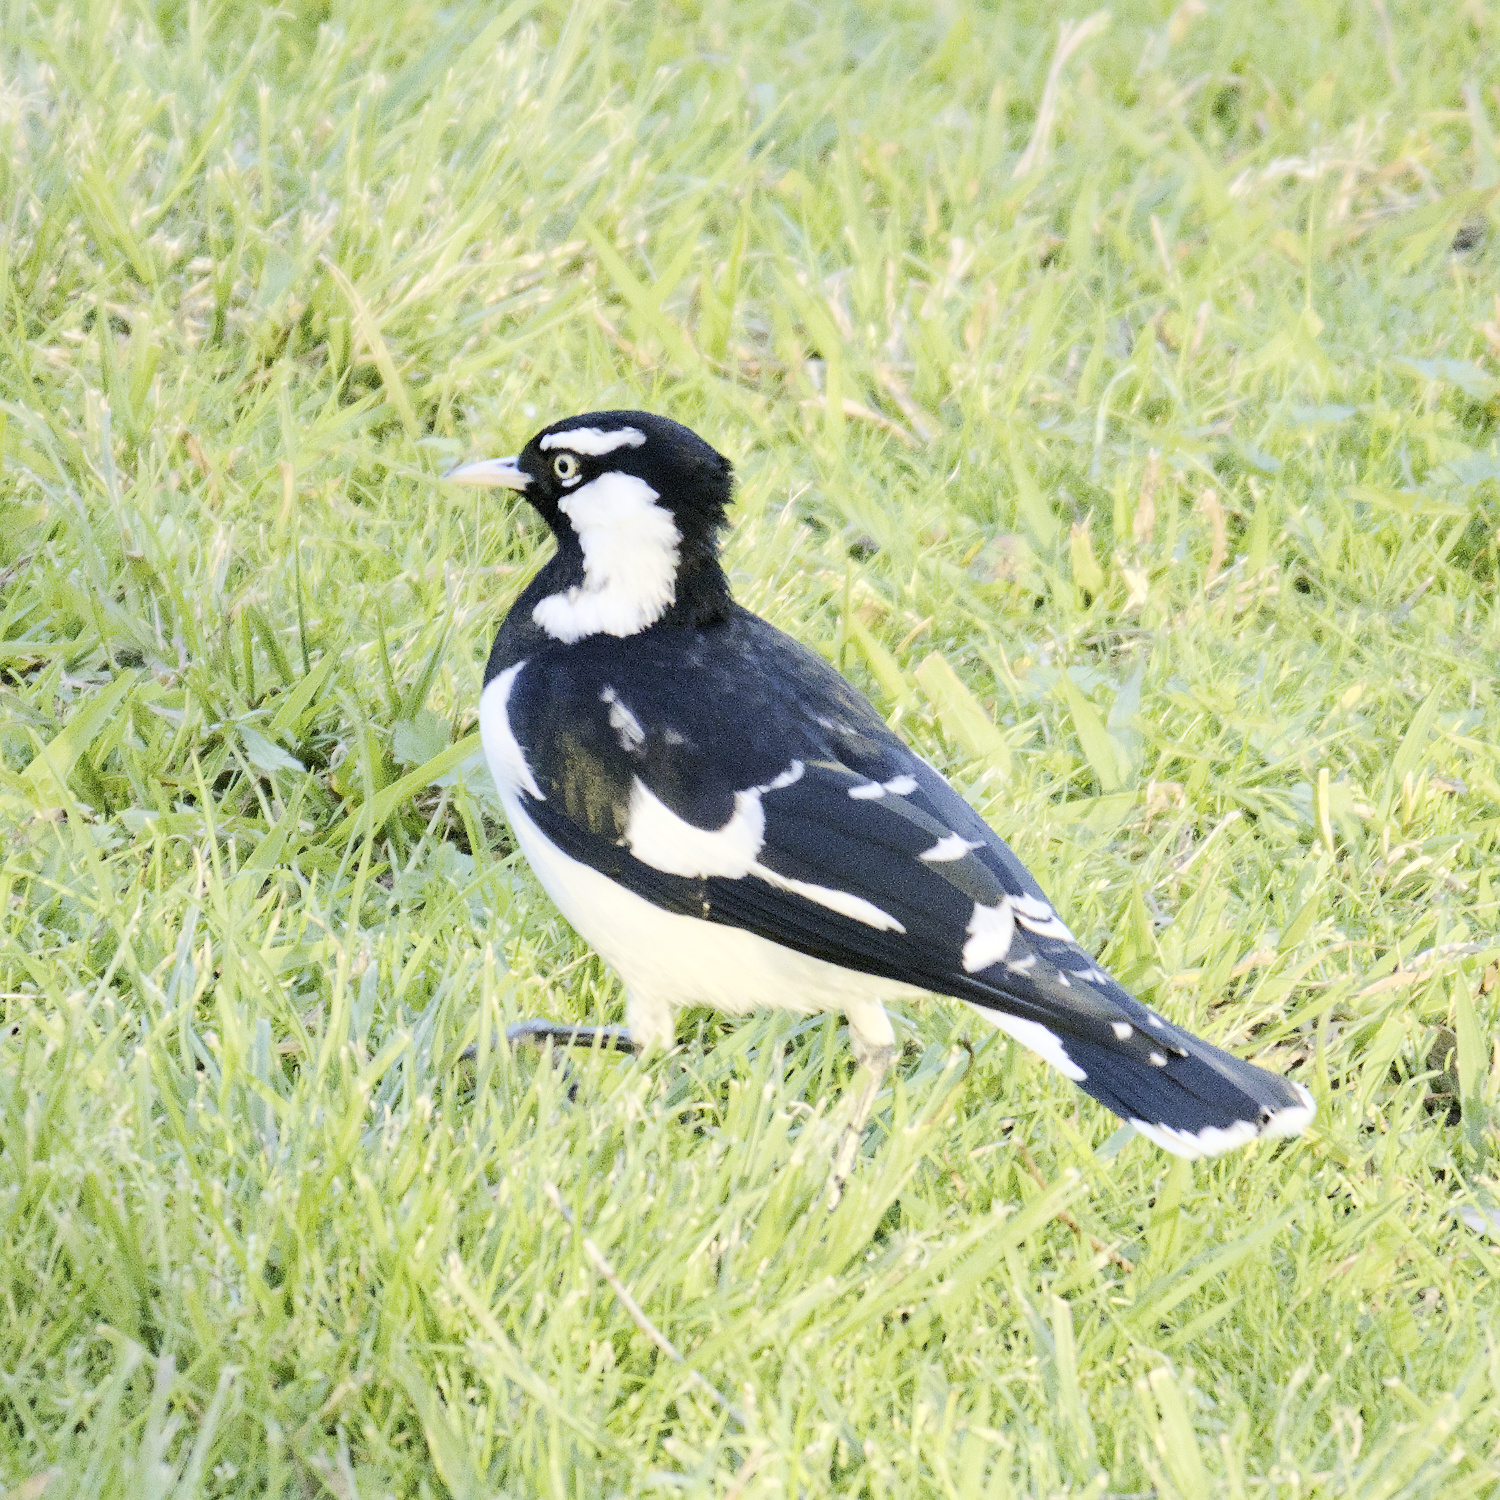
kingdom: Animalia
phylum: Chordata
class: Aves
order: Passeriformes
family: Monarchidae
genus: Grallina
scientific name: Grallina cyanoleuca
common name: Magpie-lark
